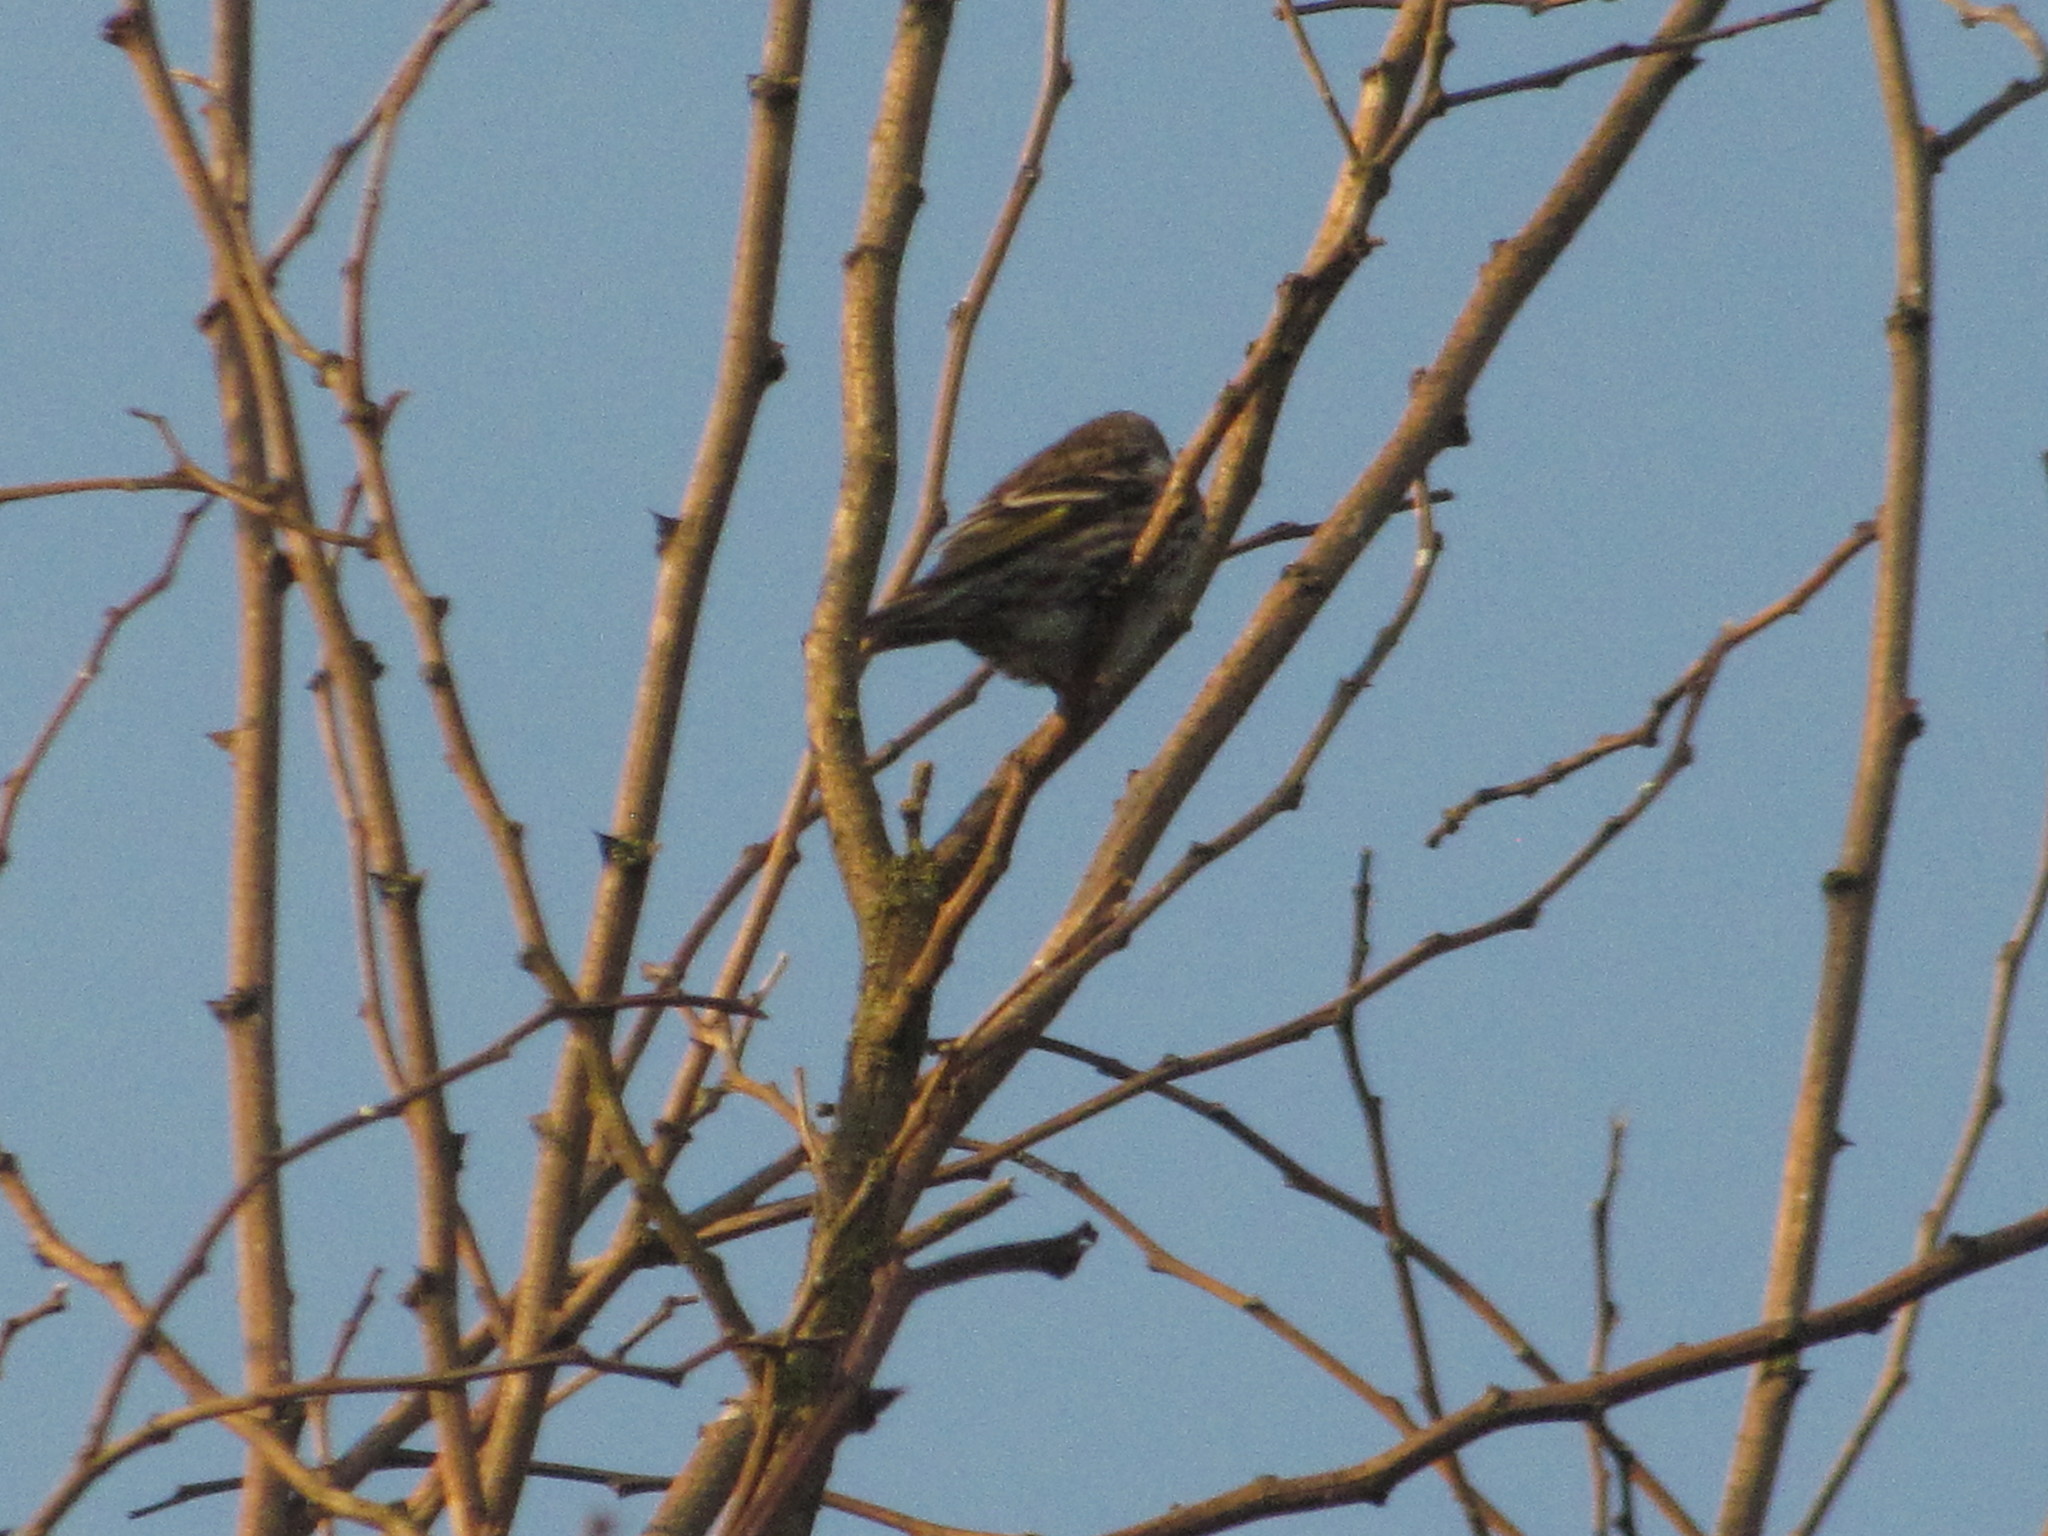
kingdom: Animalia
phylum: Chordata
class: Aves
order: Passeriformes
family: Fringillidae
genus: Spinus
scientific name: Spinus pinus
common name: Pine siskin
